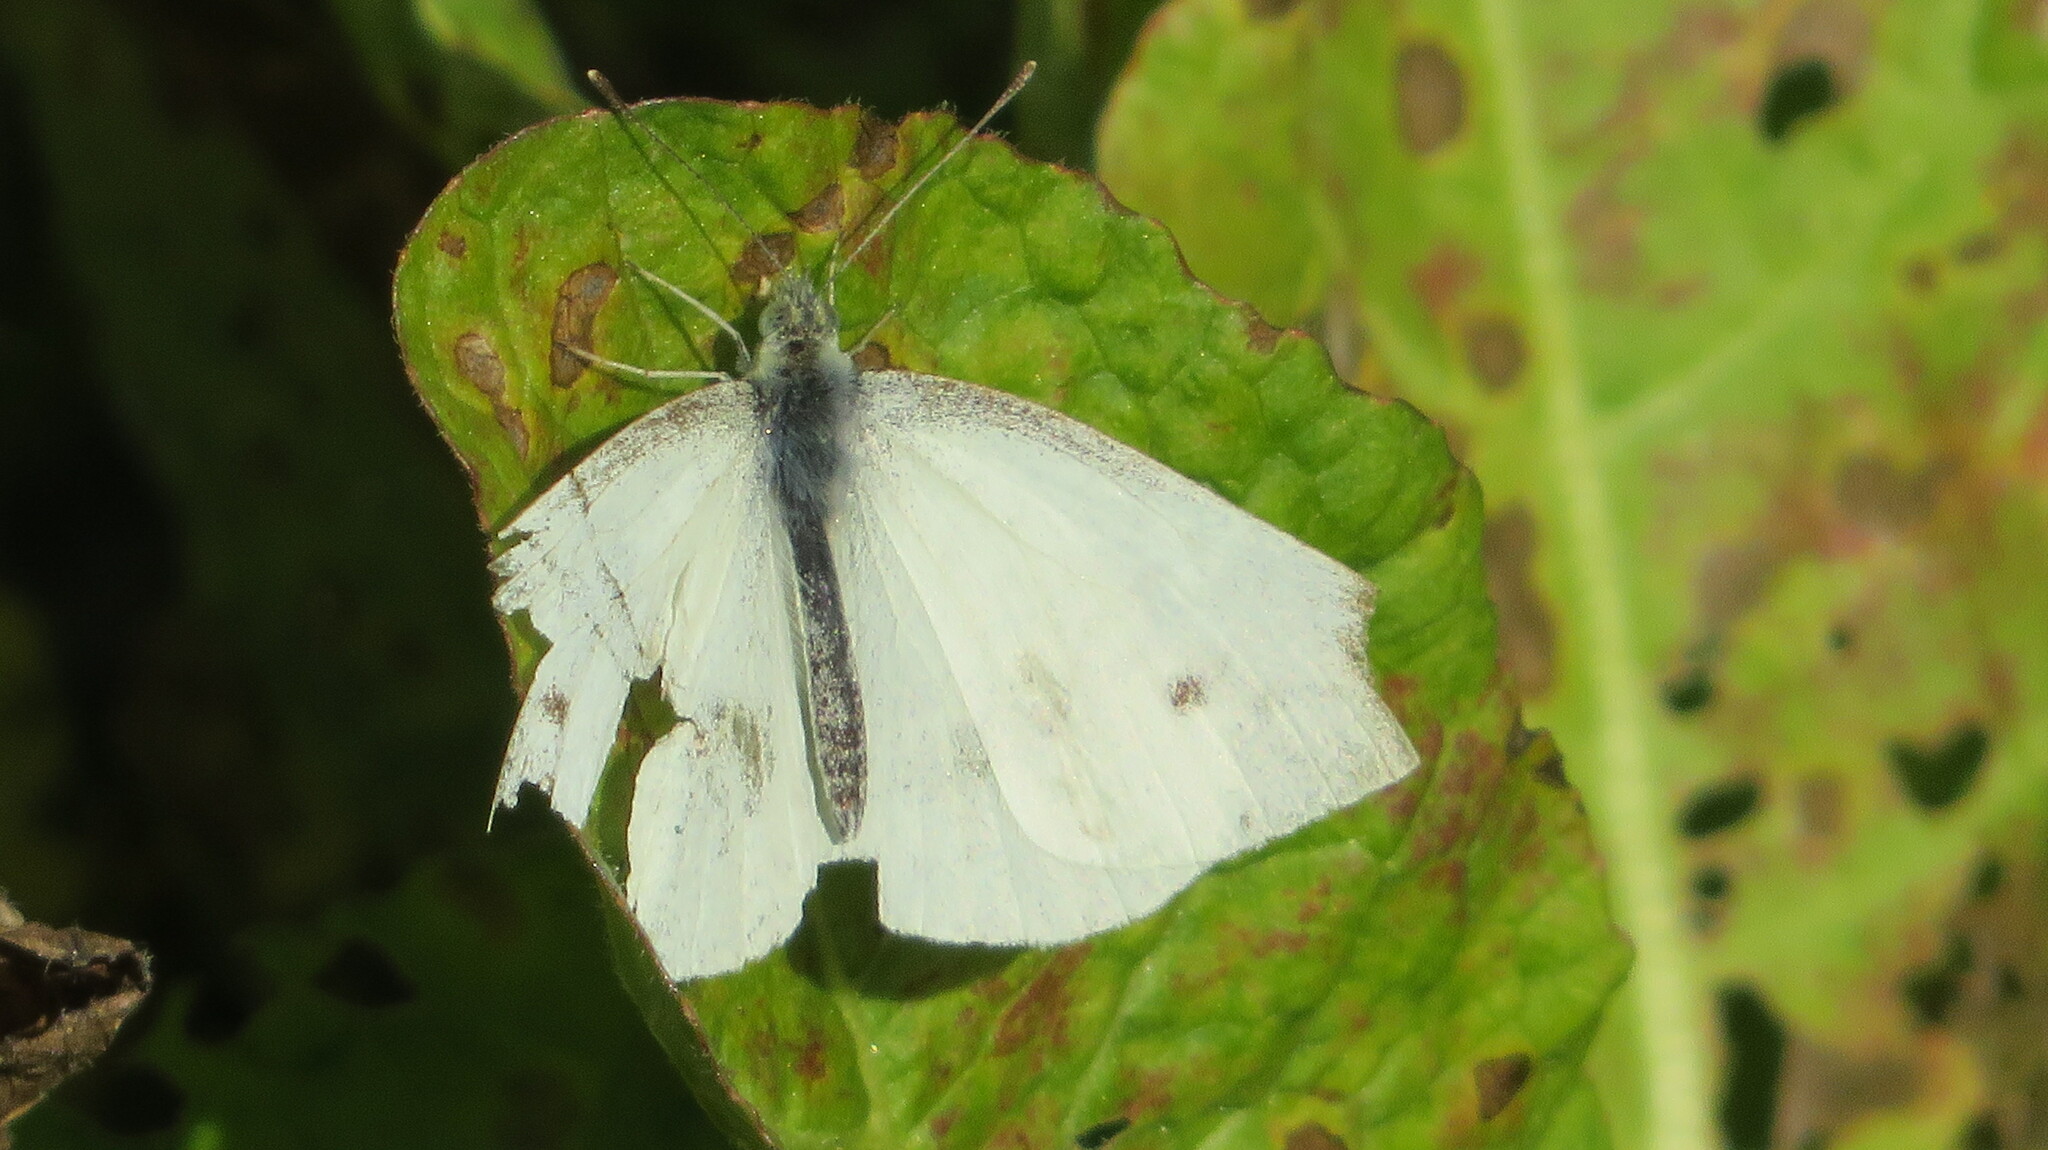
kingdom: Animalia
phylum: Arthropoda
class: Insecta
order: Lepidoptera
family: Pieridae
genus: Pieris
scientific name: Pieris rapae
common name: Small white
